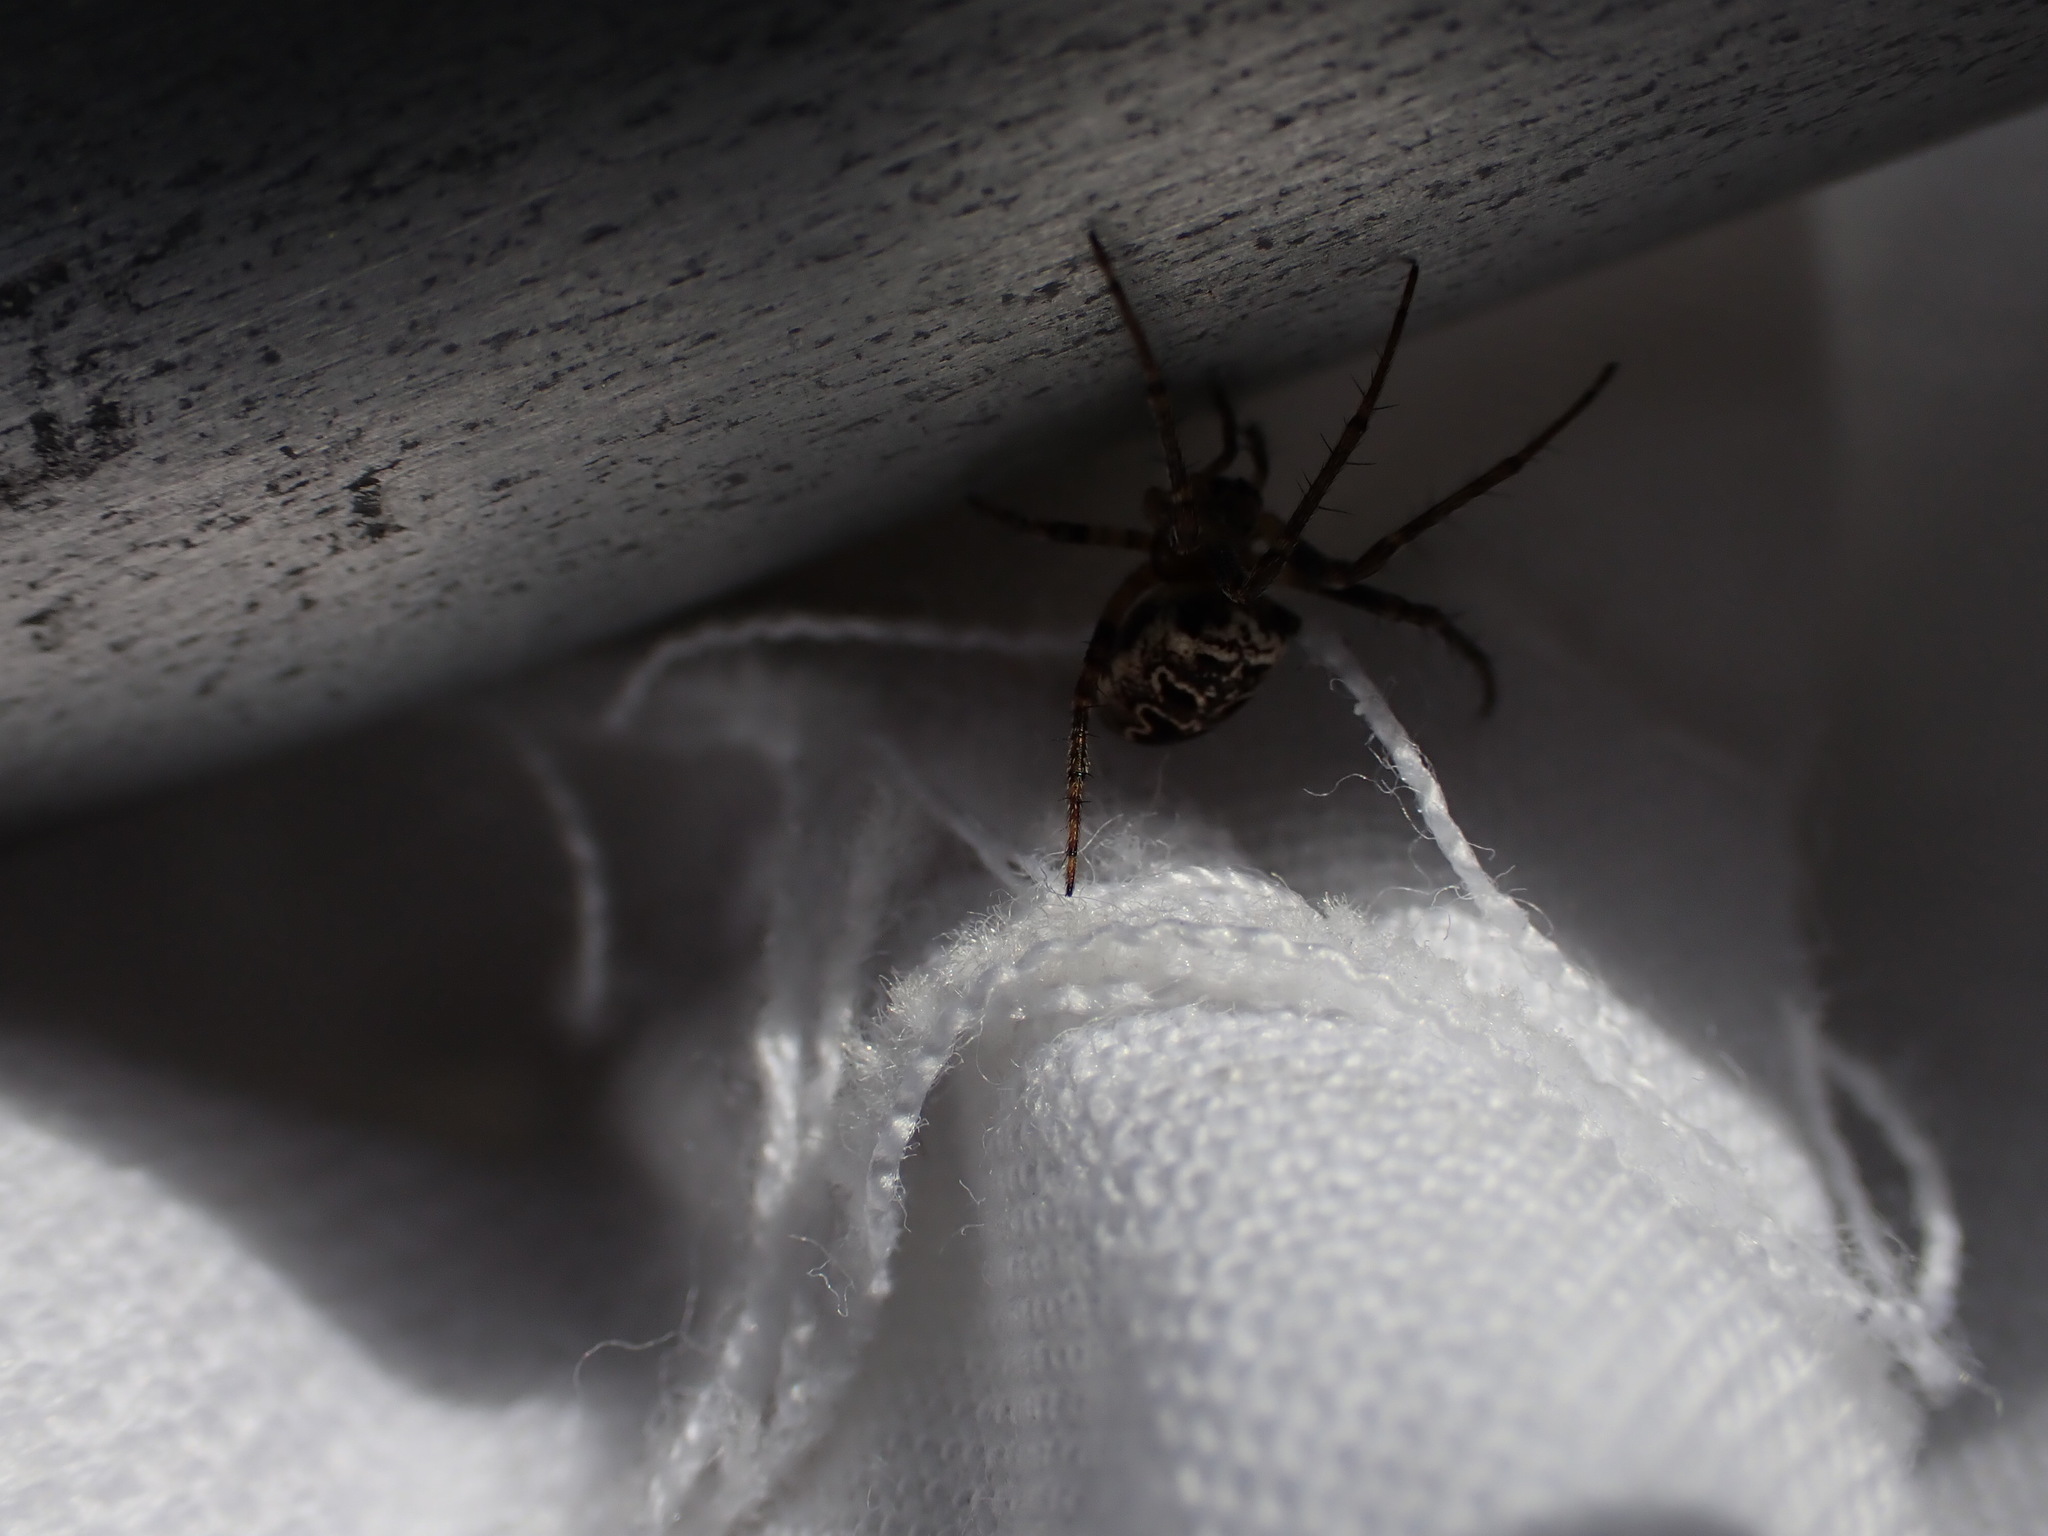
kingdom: Animalia
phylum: Arthropoda
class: Arachnida
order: Araneae
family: Araneidae
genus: Zilla
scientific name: Zilla diodia
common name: Zilla diodia
